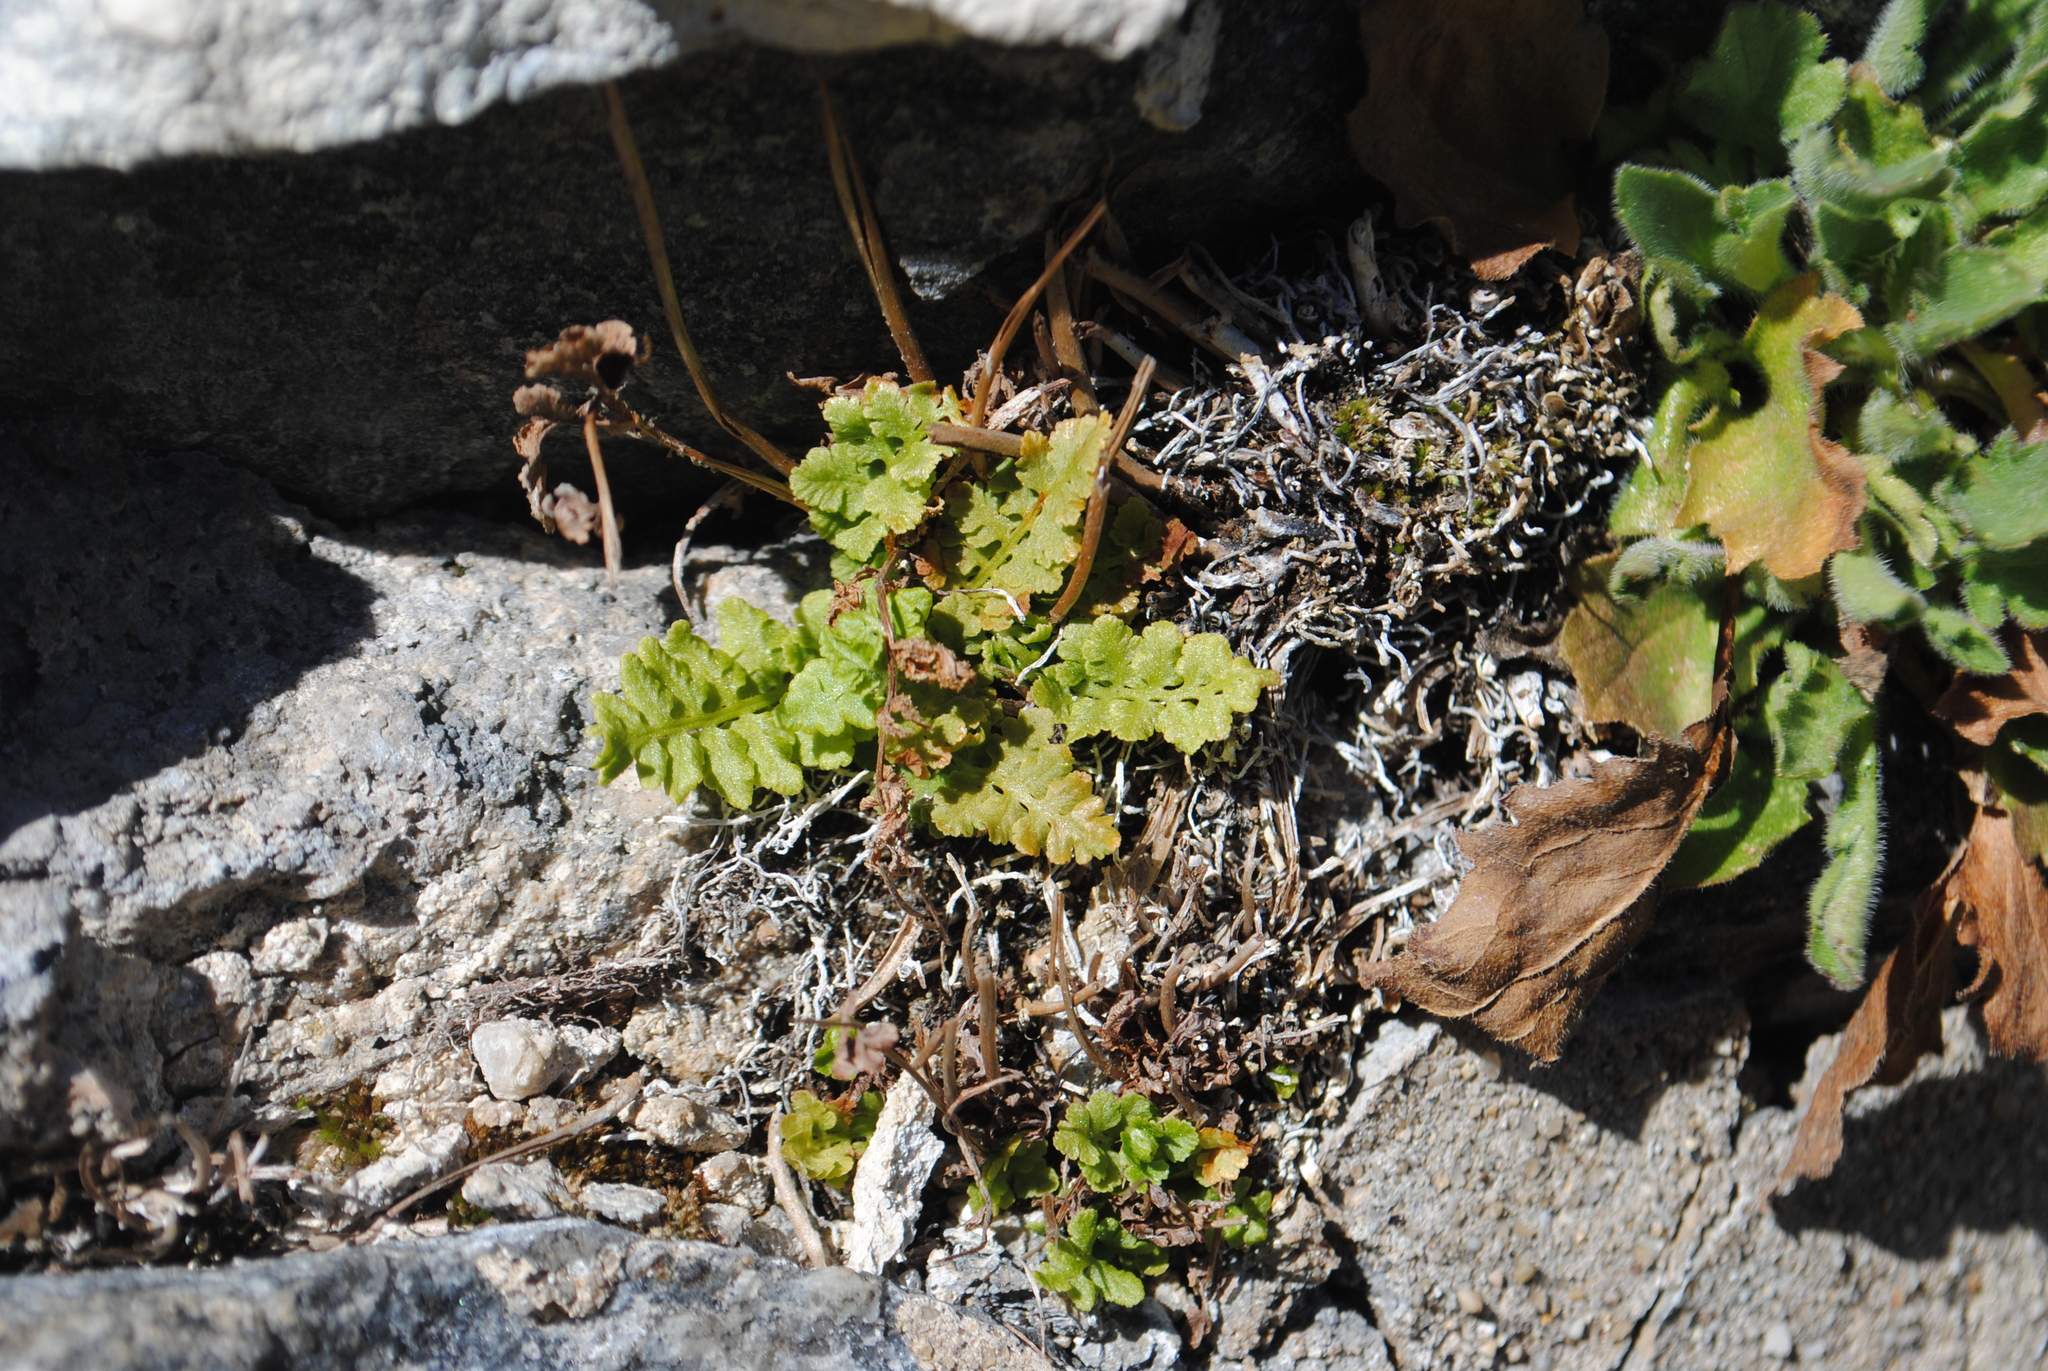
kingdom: Plantae
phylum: Tracheophyta
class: Polypodiopsida
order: Polypodiales
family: Woodsiaceae
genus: Physematium
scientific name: Physematium obtusum
